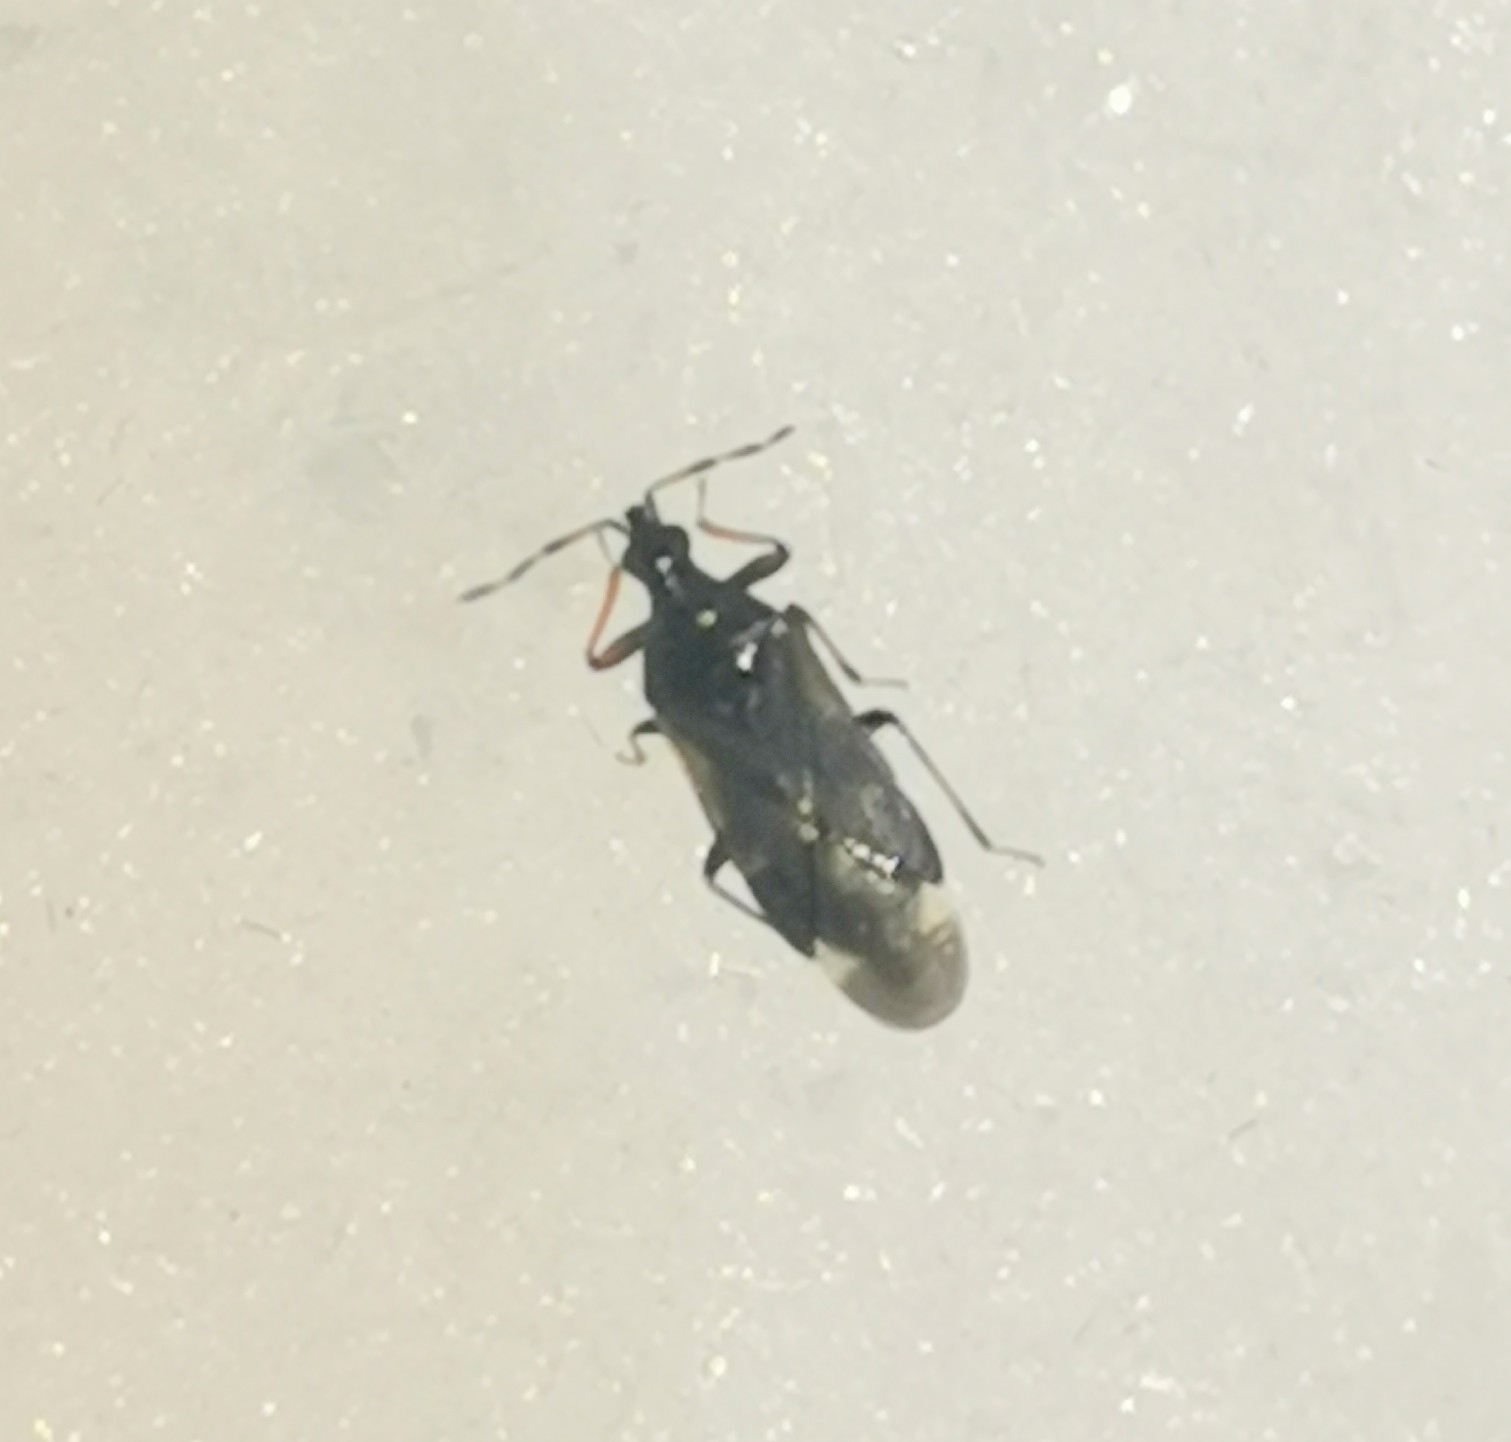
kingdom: Animalia
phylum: Arthropoda
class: Insecta
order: Hemiptera
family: Anthocoridae
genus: Anthocoris
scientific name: Anthocoris confusus
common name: Minute pirate bug
